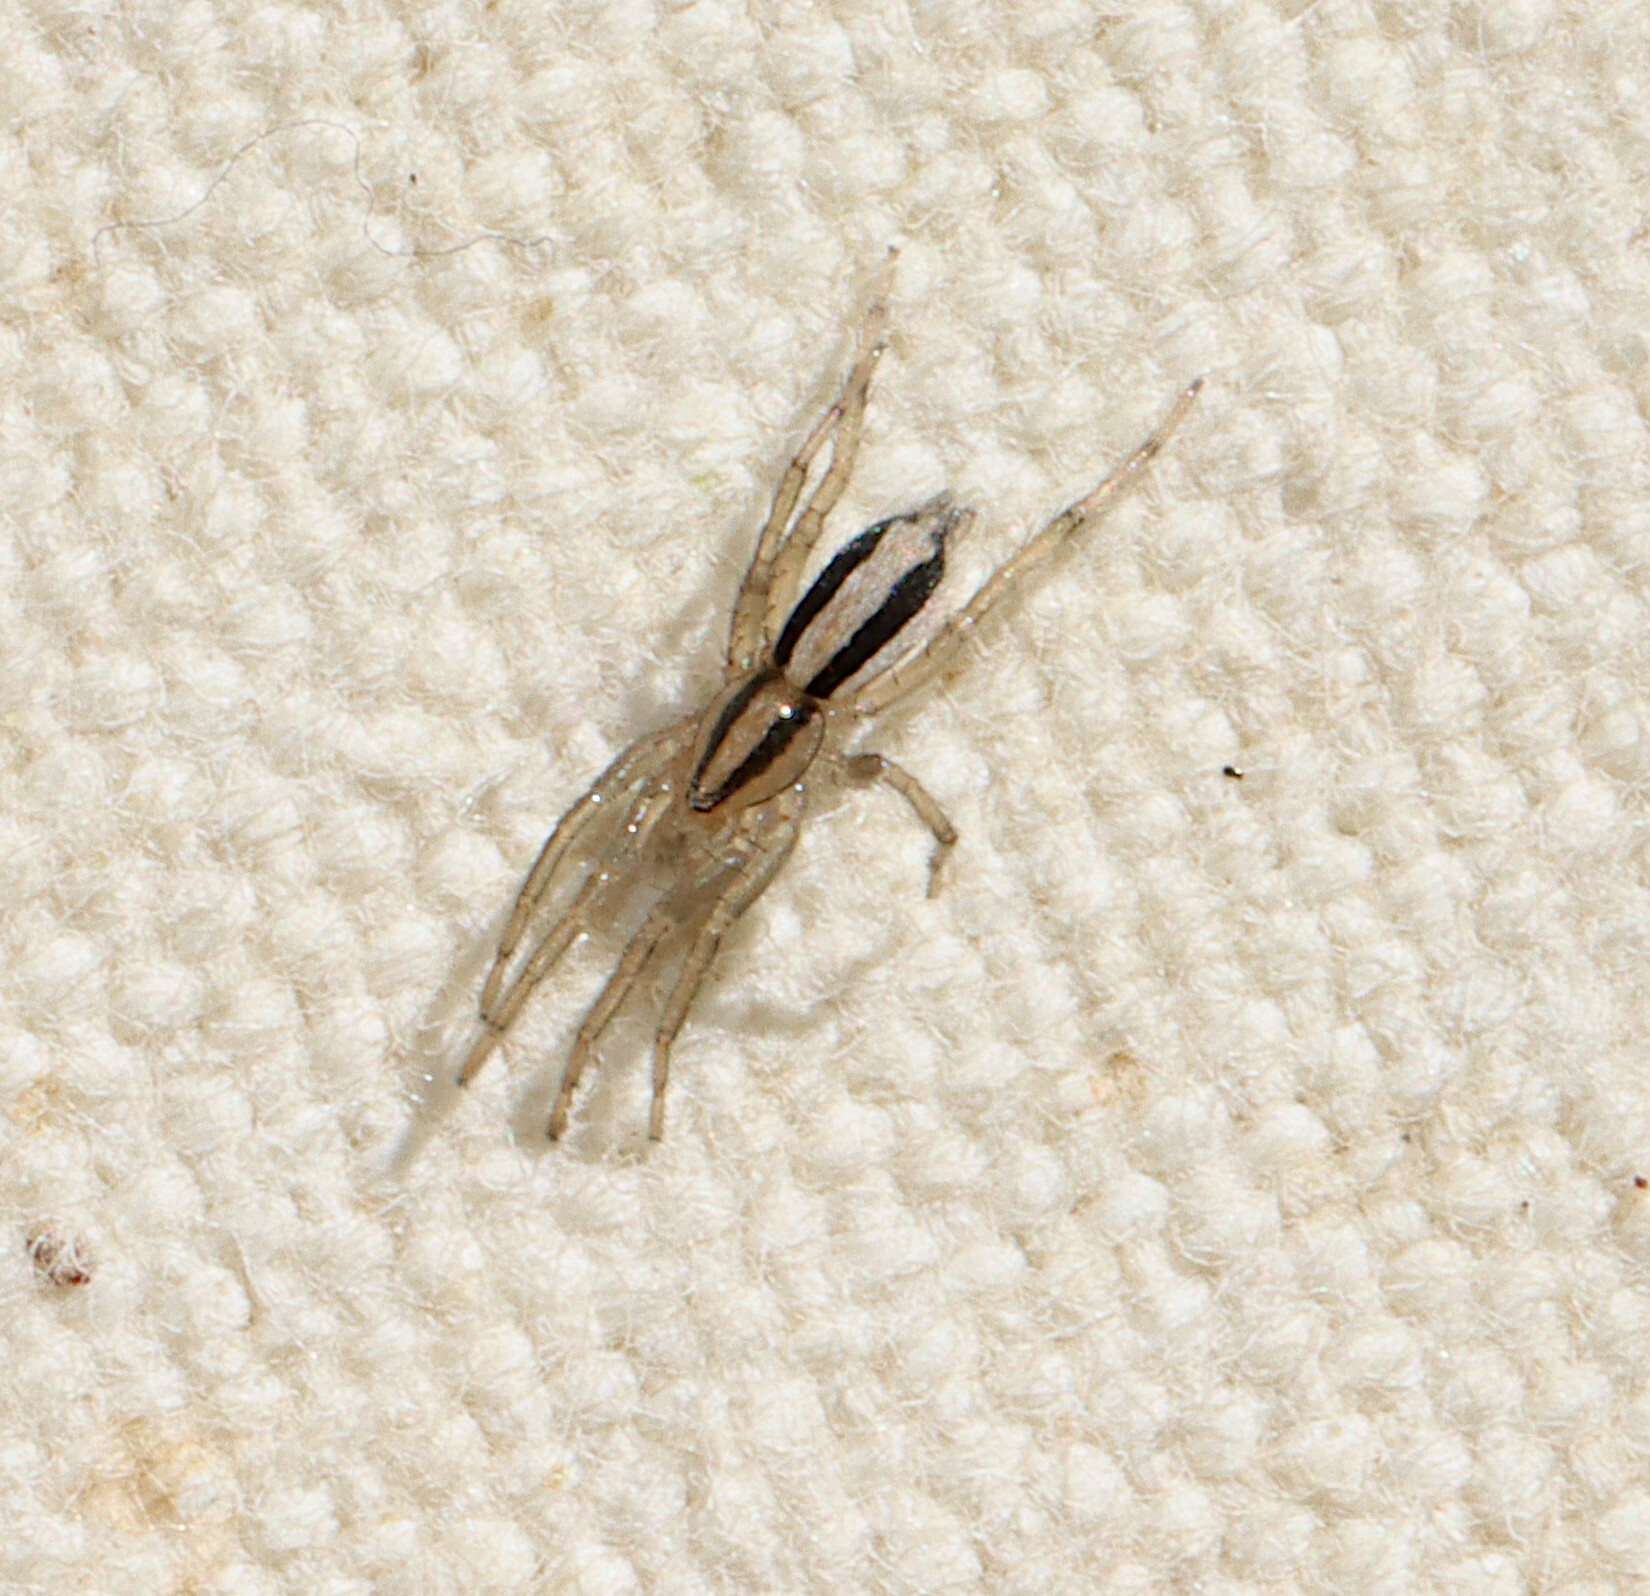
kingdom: Animalia
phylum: Arthropoda
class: Arachnida
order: Araneae
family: Gnaphosidae
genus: Cesonia
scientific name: Cesonia bilineata
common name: Two-lined stealthy ground spider
